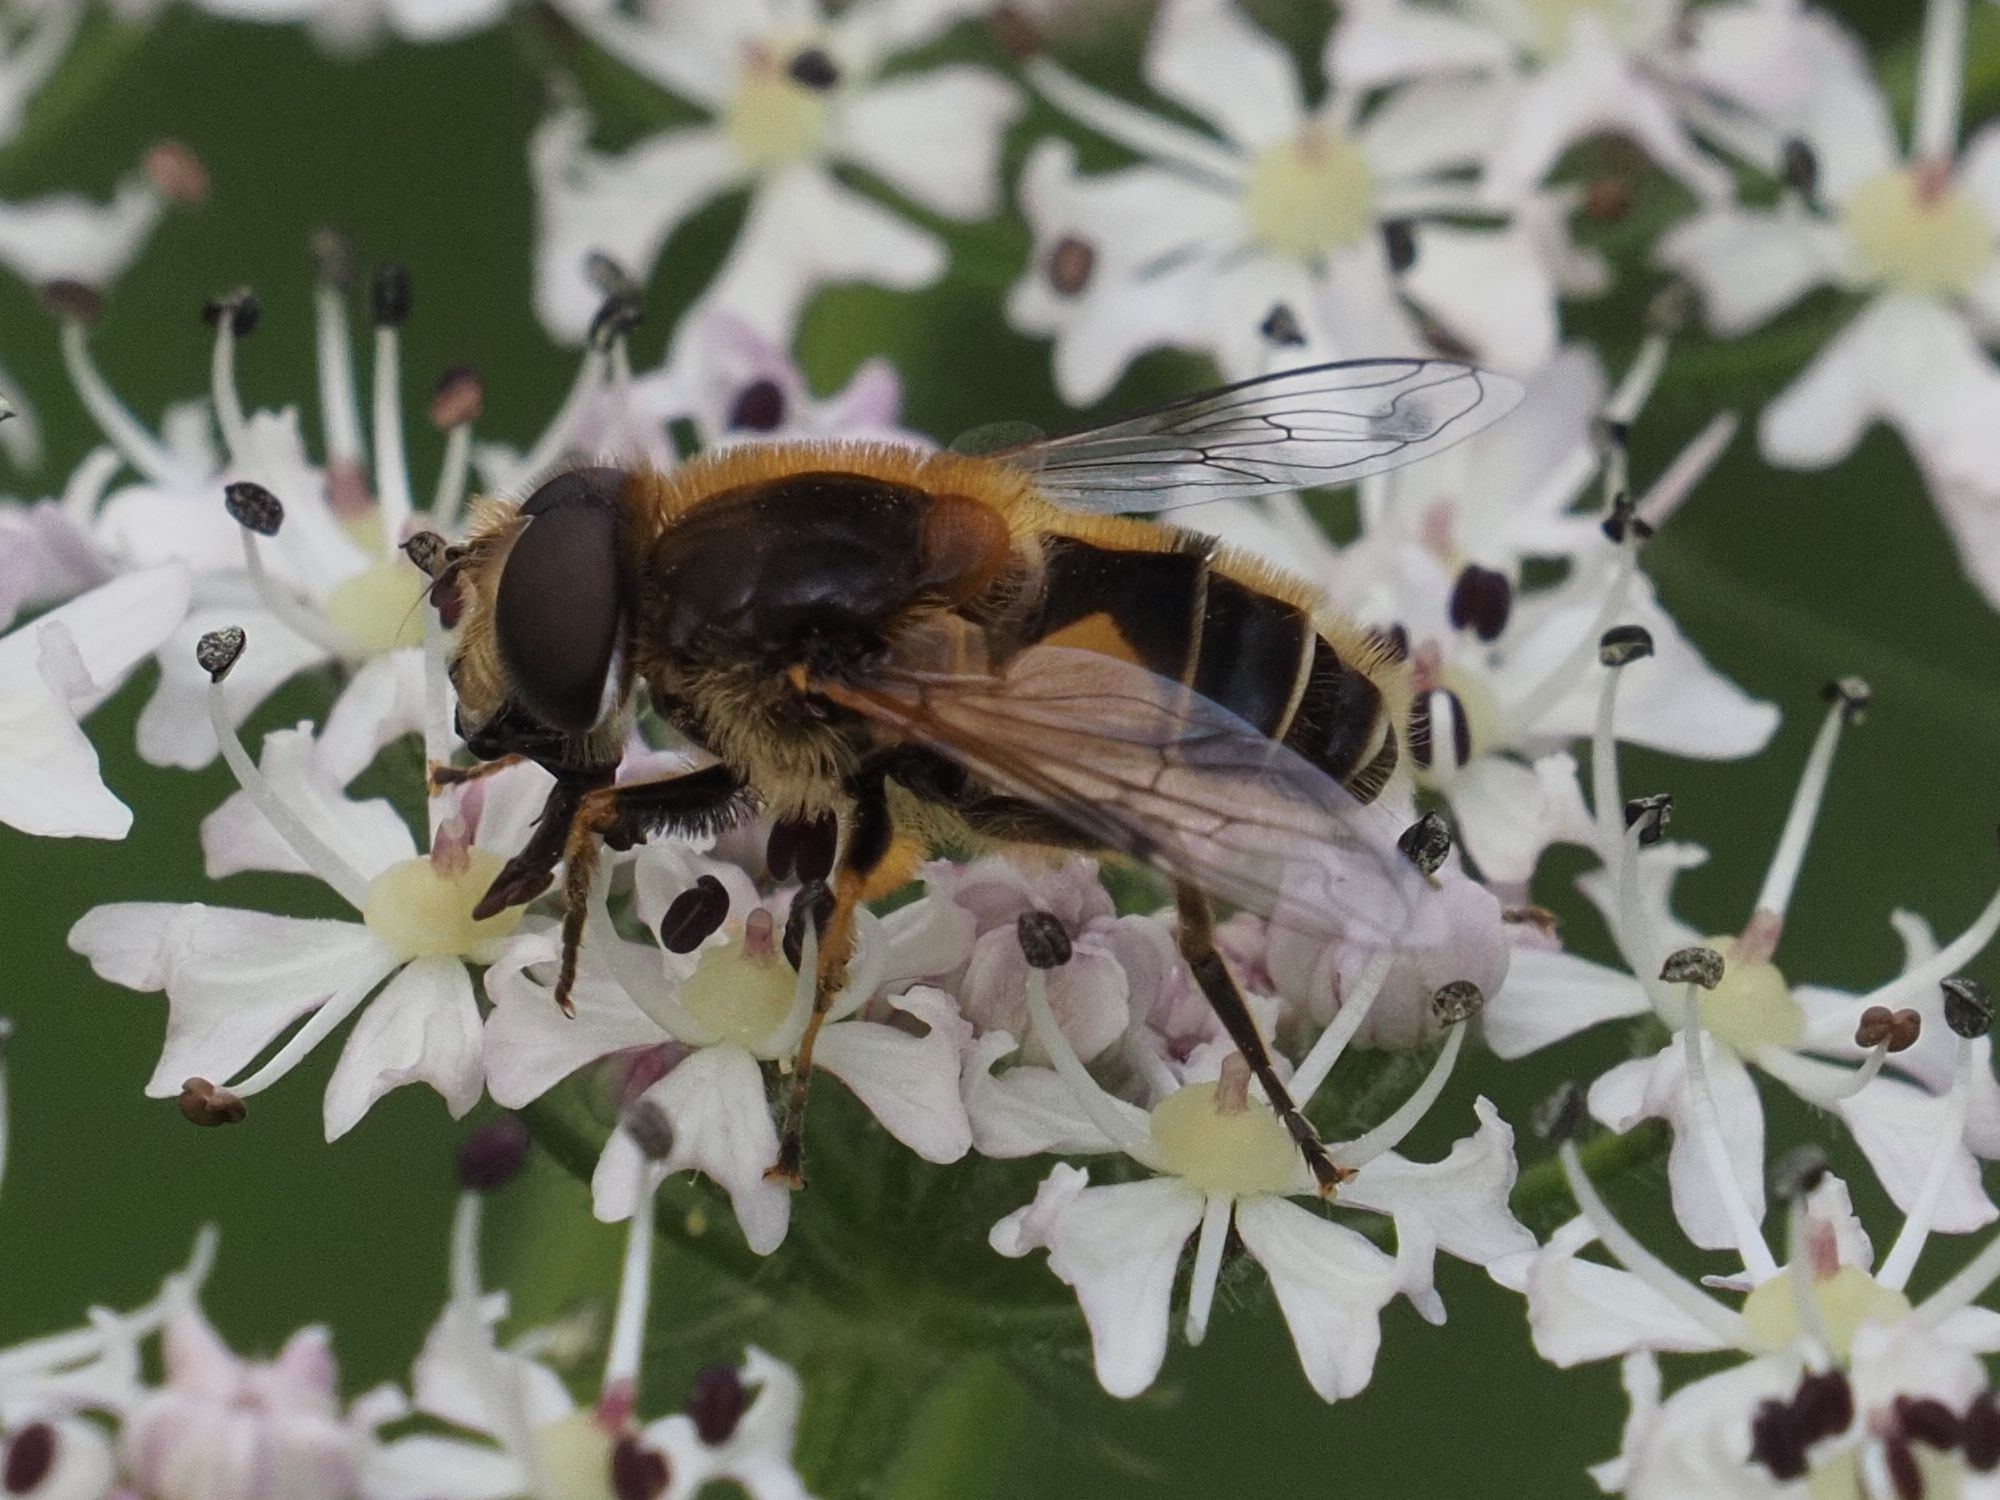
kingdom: Animalia
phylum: Arthropoda
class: Insecta
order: Diptera
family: Syrphidae
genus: Eristalis
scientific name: Eristalis jugorum
